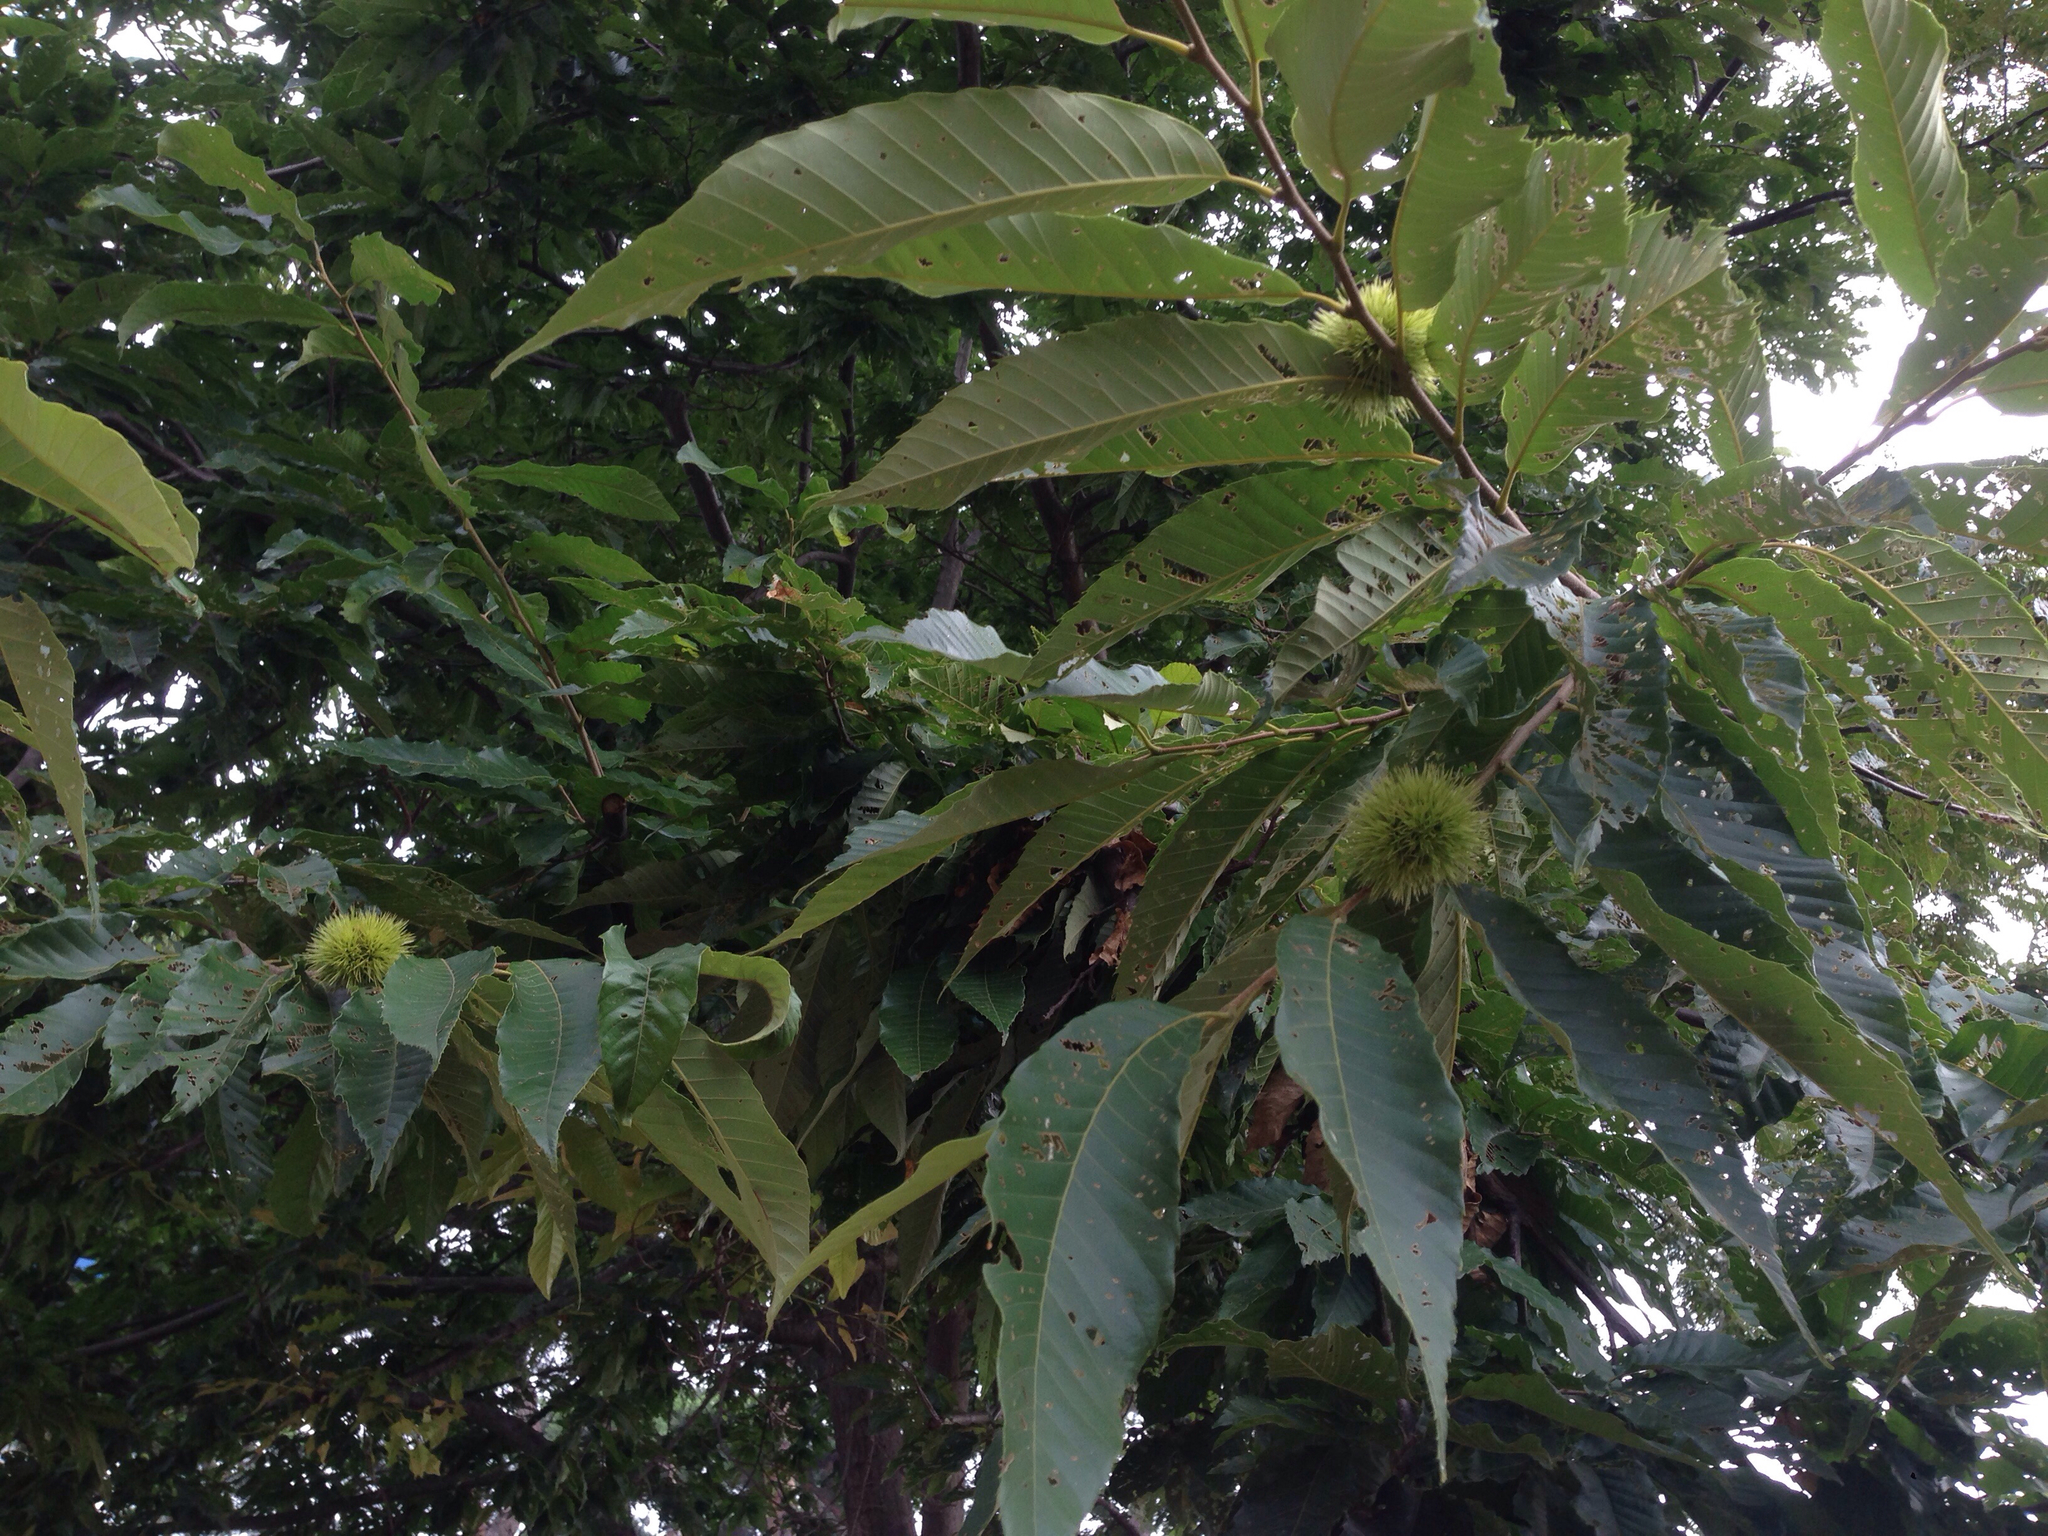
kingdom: Plantae
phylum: Tracheophyta
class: Magnoliopsida
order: Fagales
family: Fagaceae
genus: Castanea
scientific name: Castanea crenata
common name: Japanese chestnut
